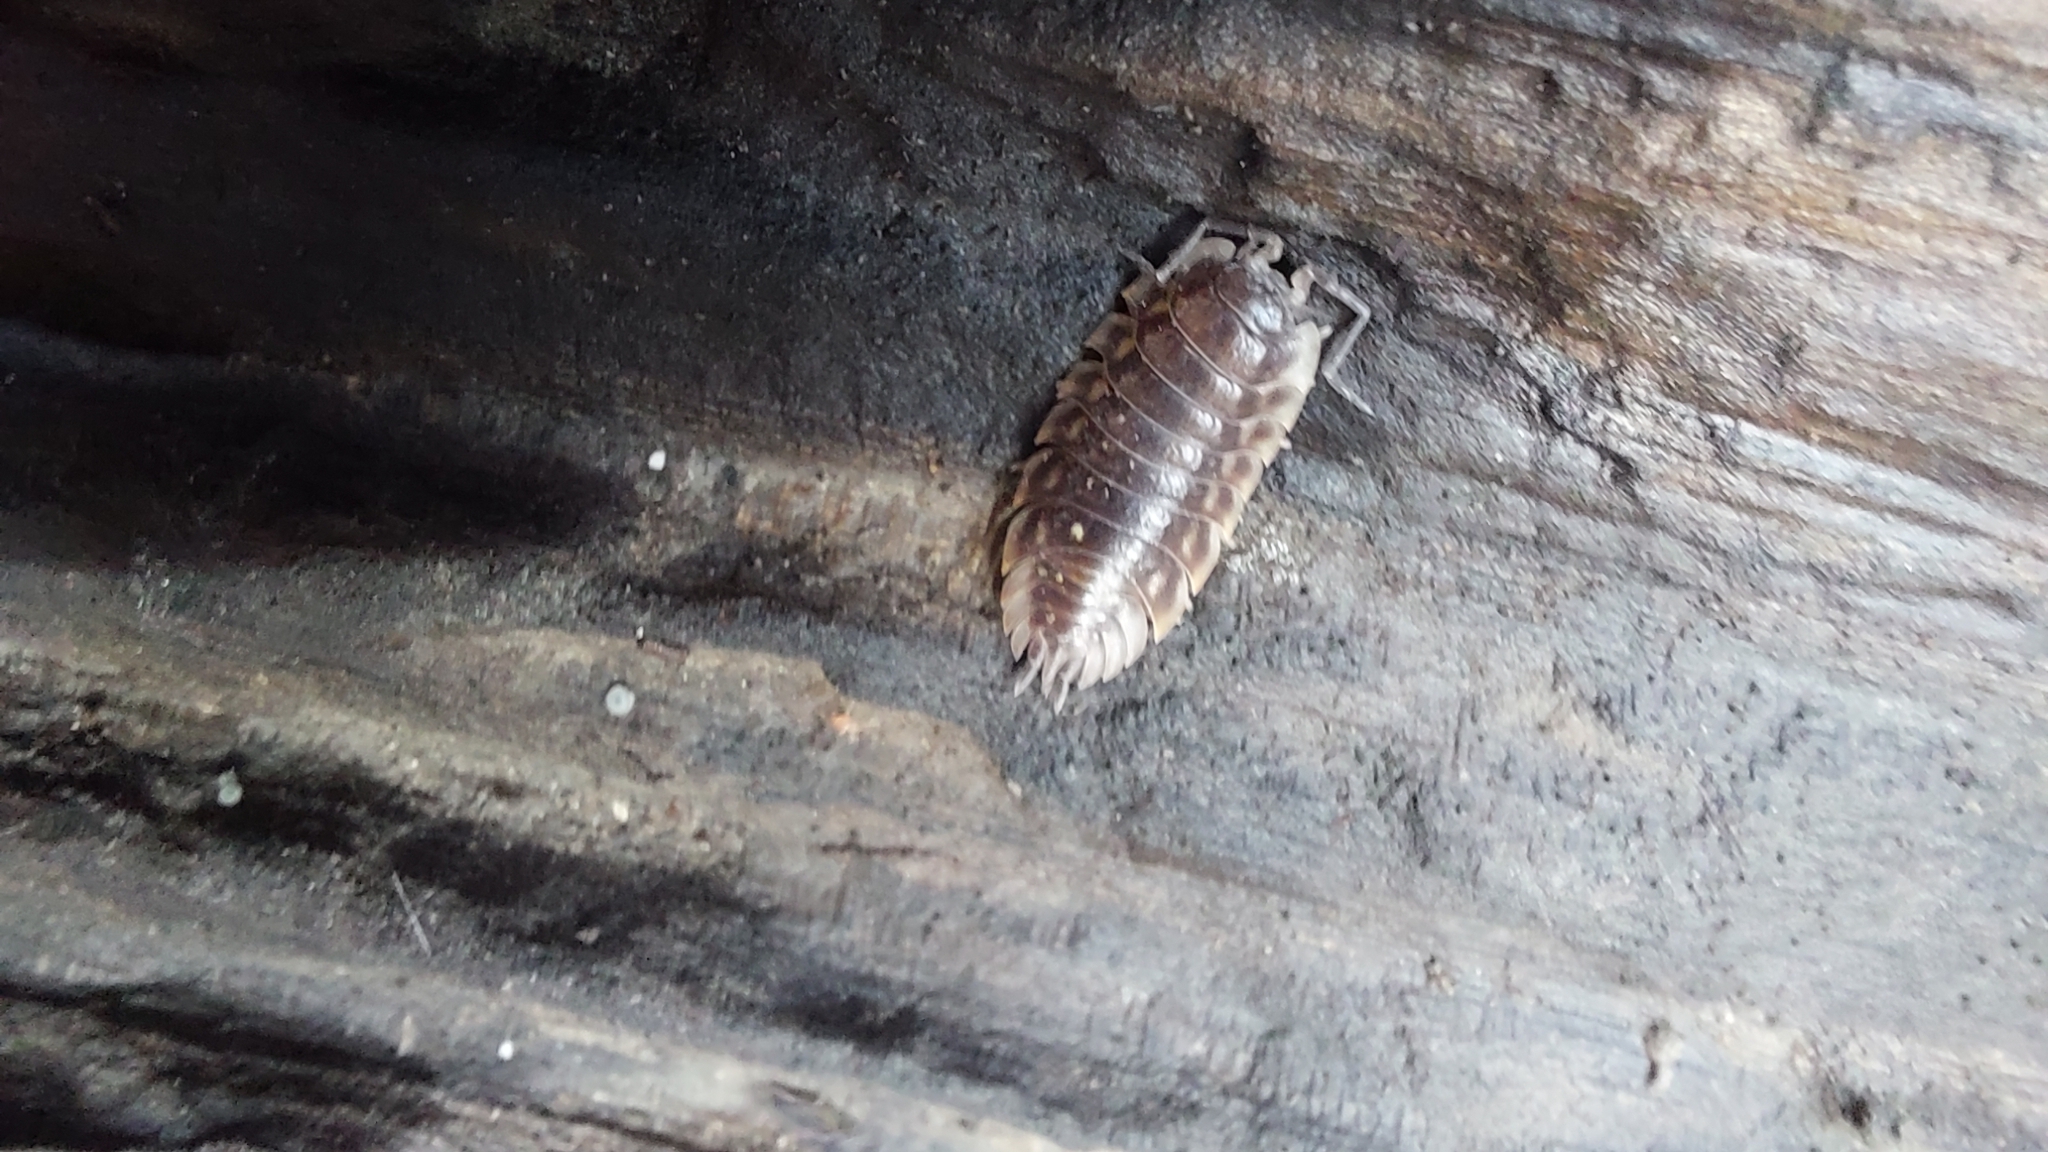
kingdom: Animalia
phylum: Arthropoda
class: Malacostraca
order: Isopoda
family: Oniscidae
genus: Oniscus
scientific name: Oniscus asellus
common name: Common shiny woodlouse
